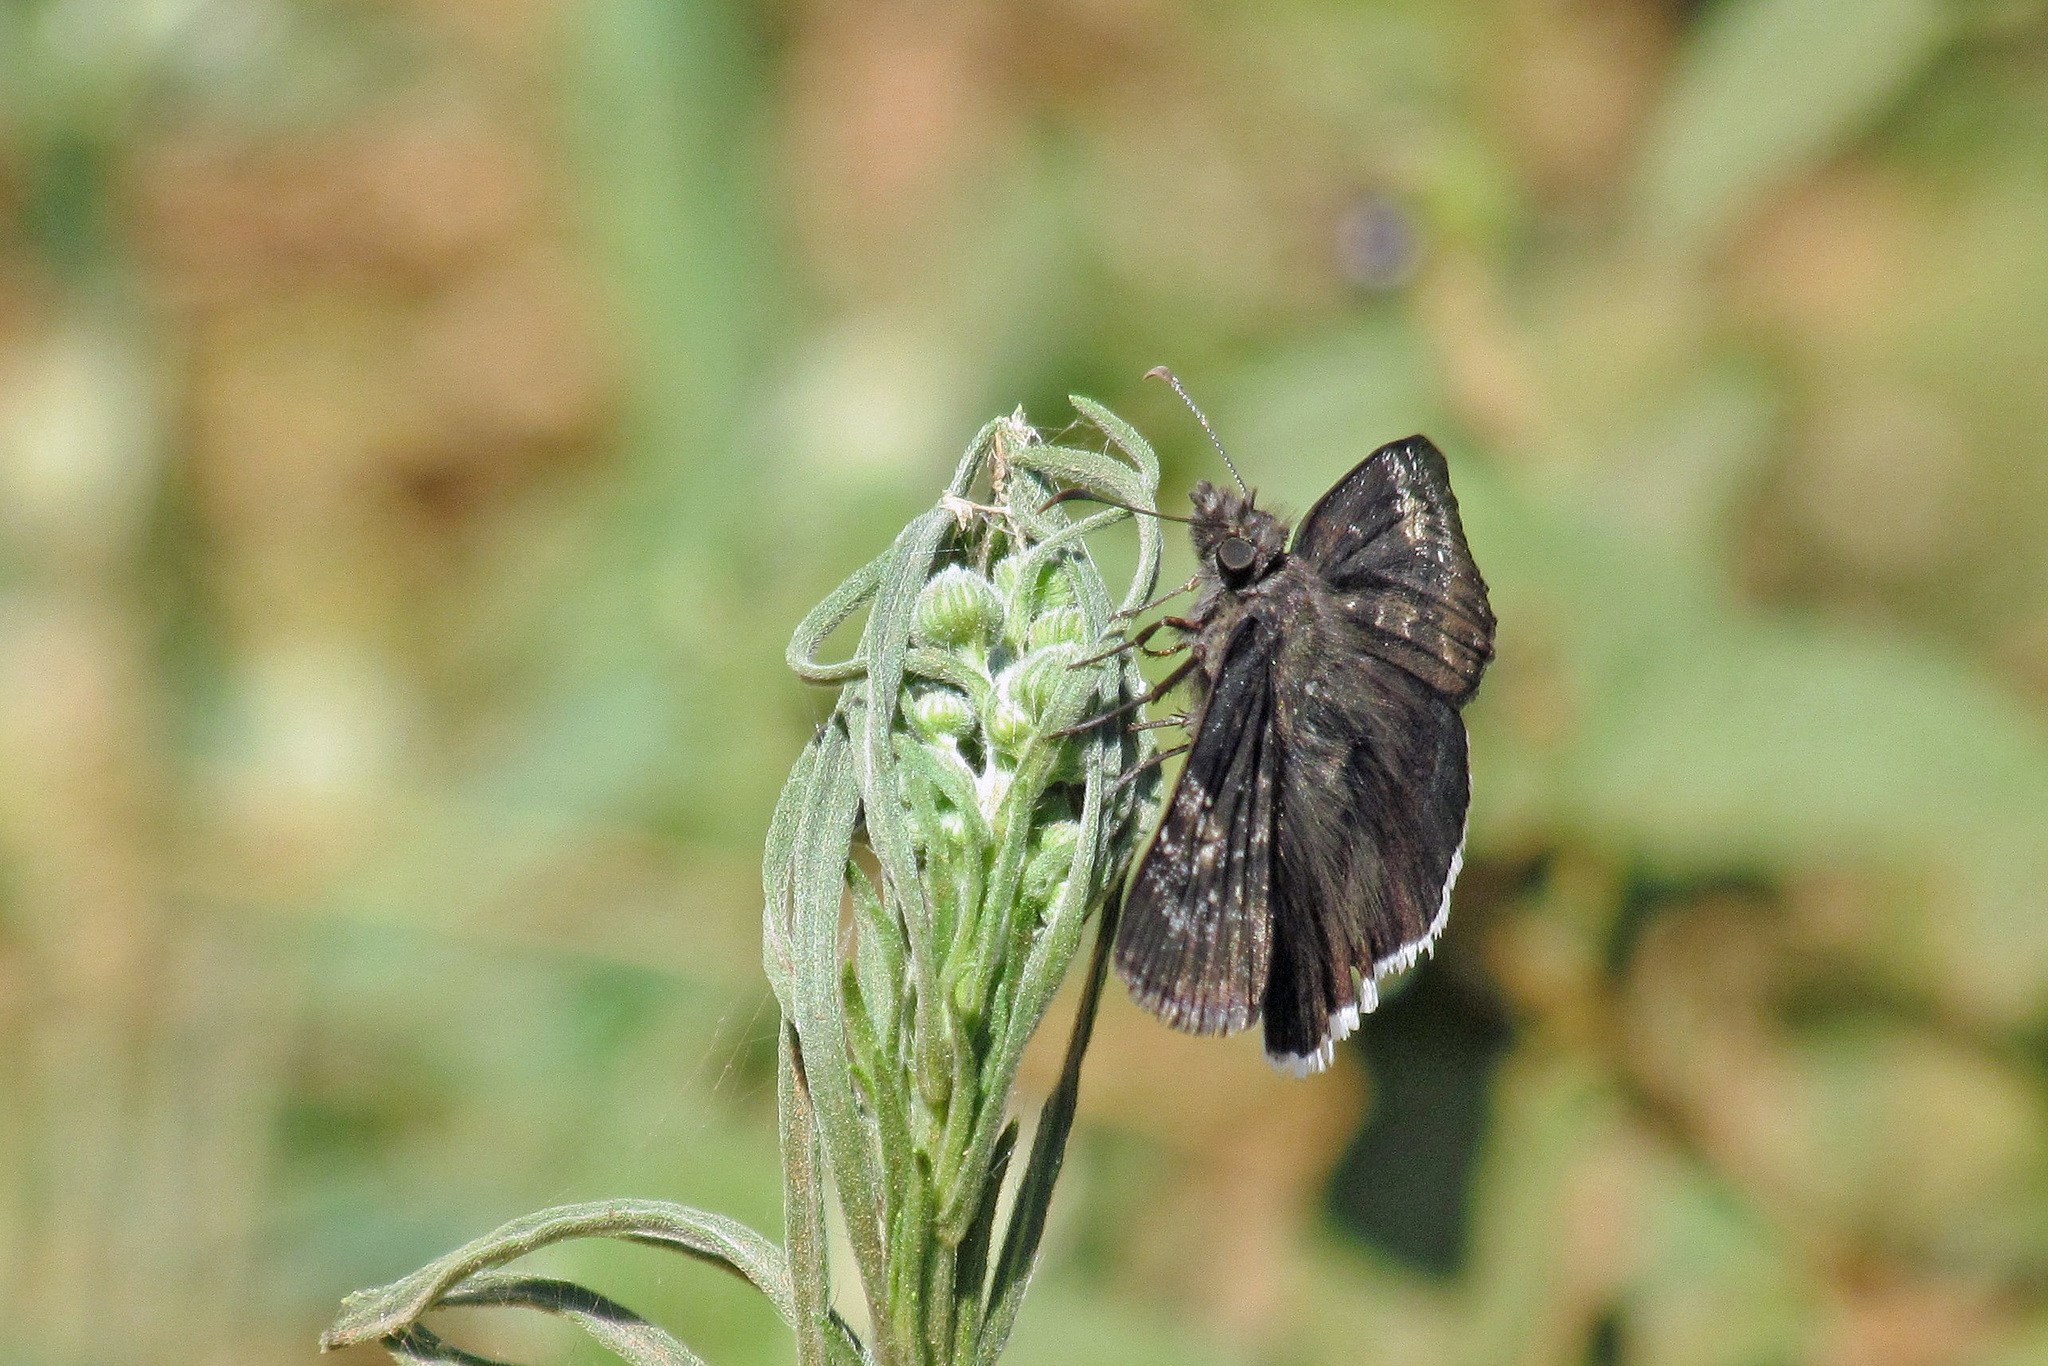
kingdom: Animalia
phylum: Arthropoda
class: Insecta
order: Lepidoptera
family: Hesperiidae
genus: Erynnis
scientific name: Erynnis funeralis
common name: Funereal duskywing
